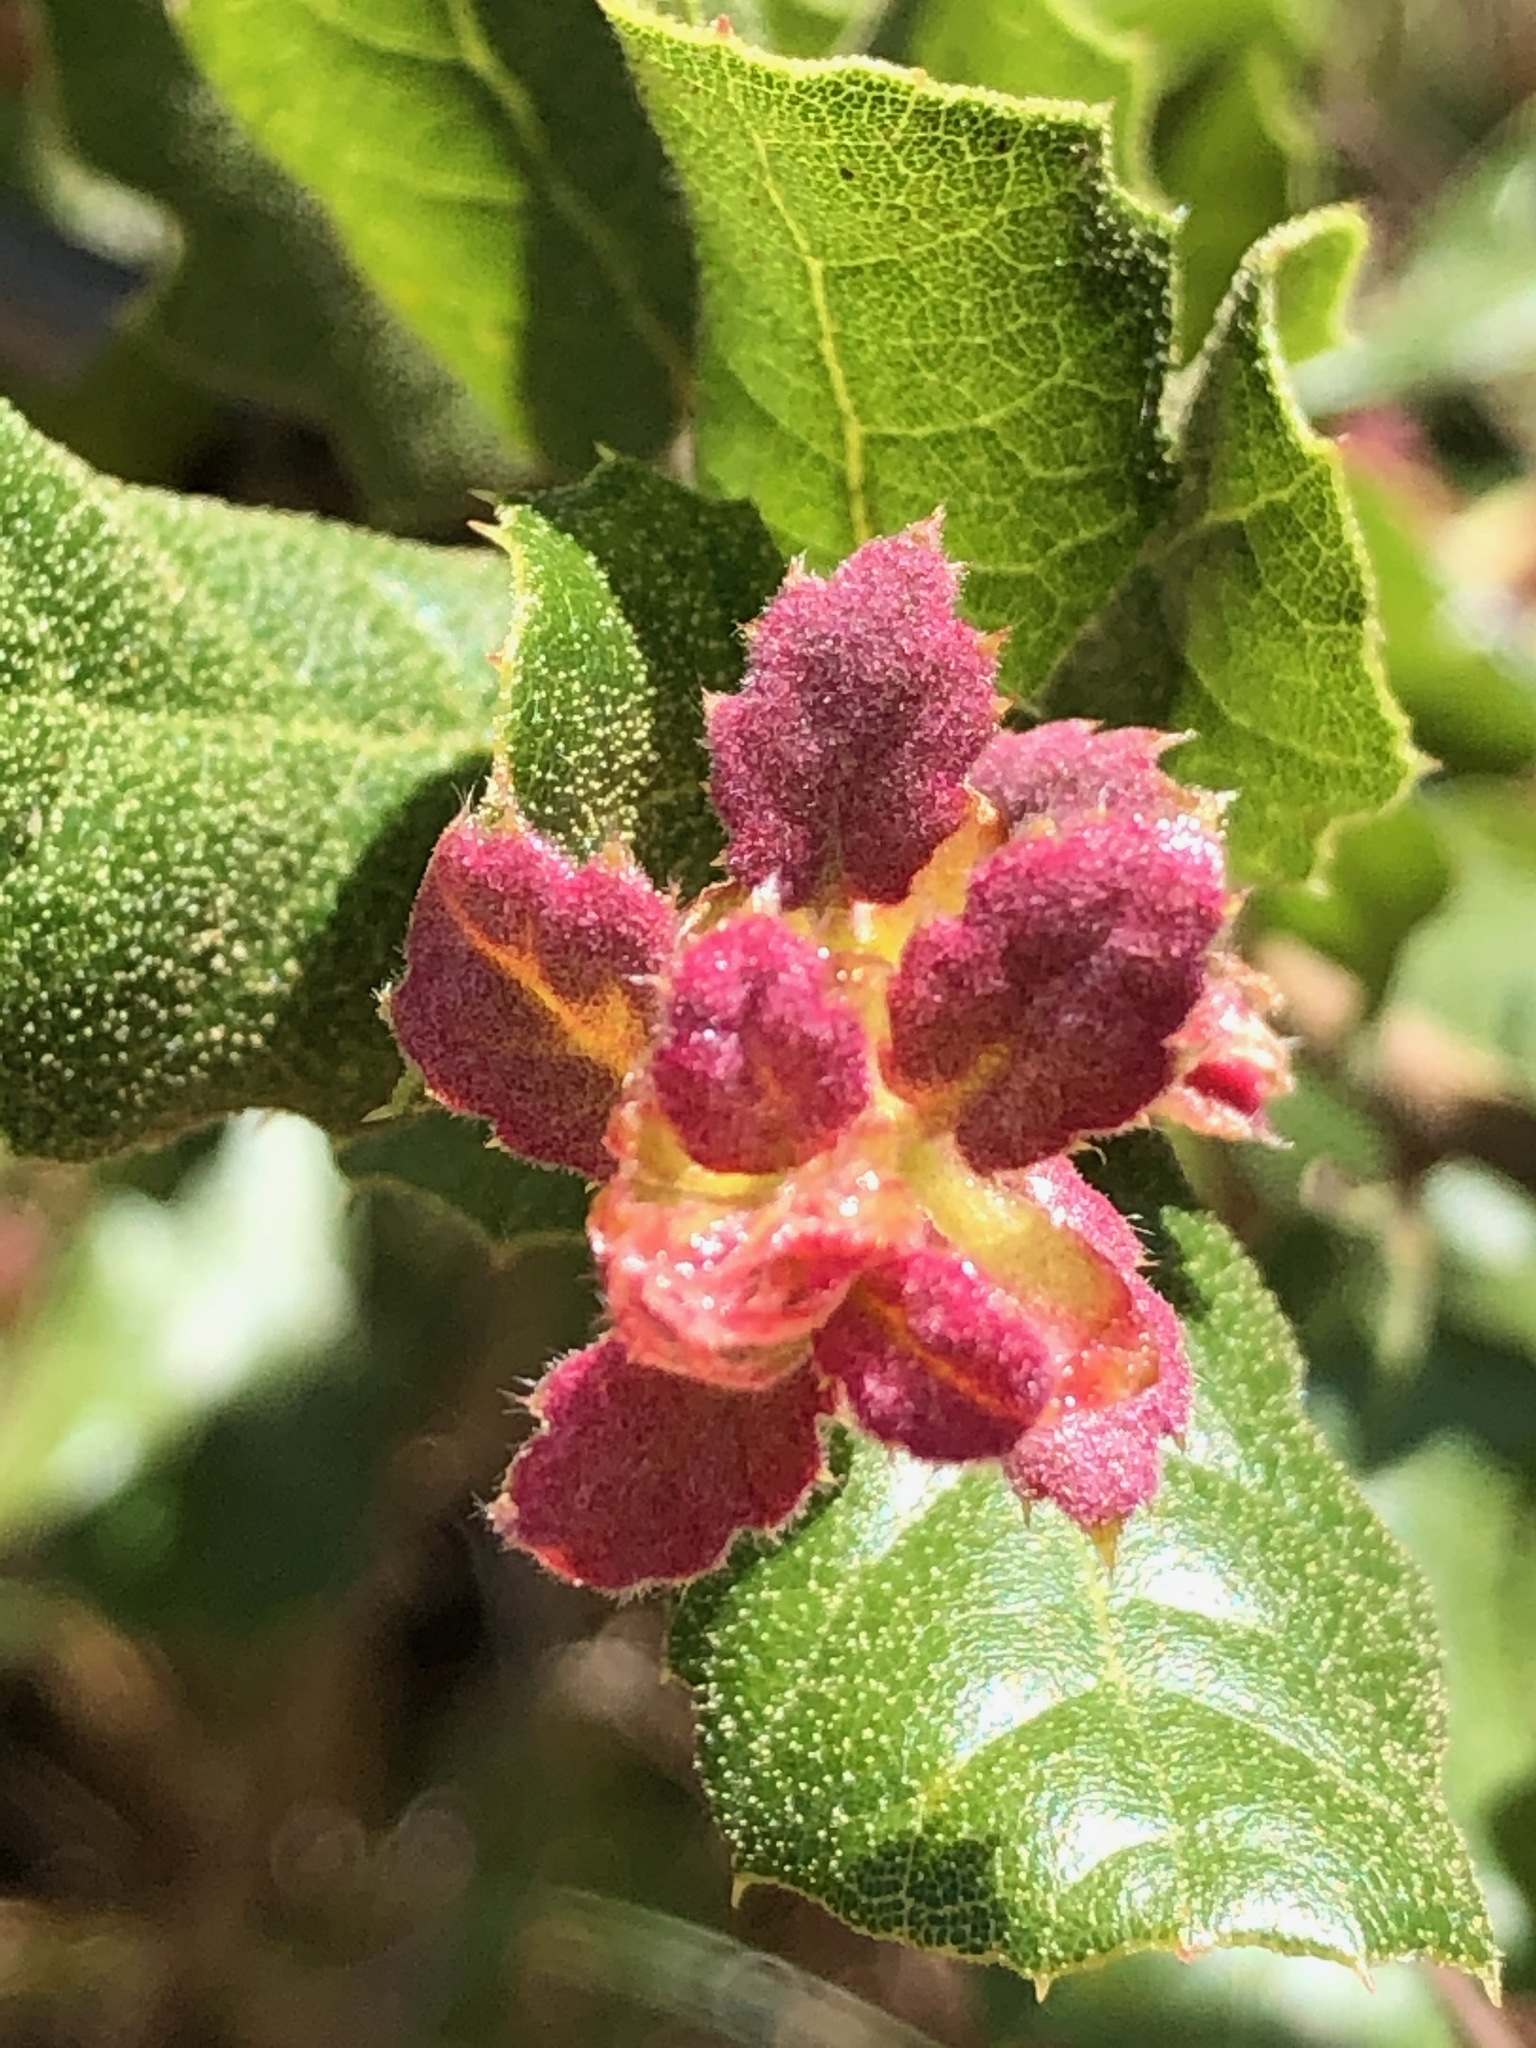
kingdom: Plantae
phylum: Tracheophyta
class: Magnoliopsida
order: Fagales
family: Fagaceae
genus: Quercus
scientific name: Quercus agrifolia
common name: California live oak
